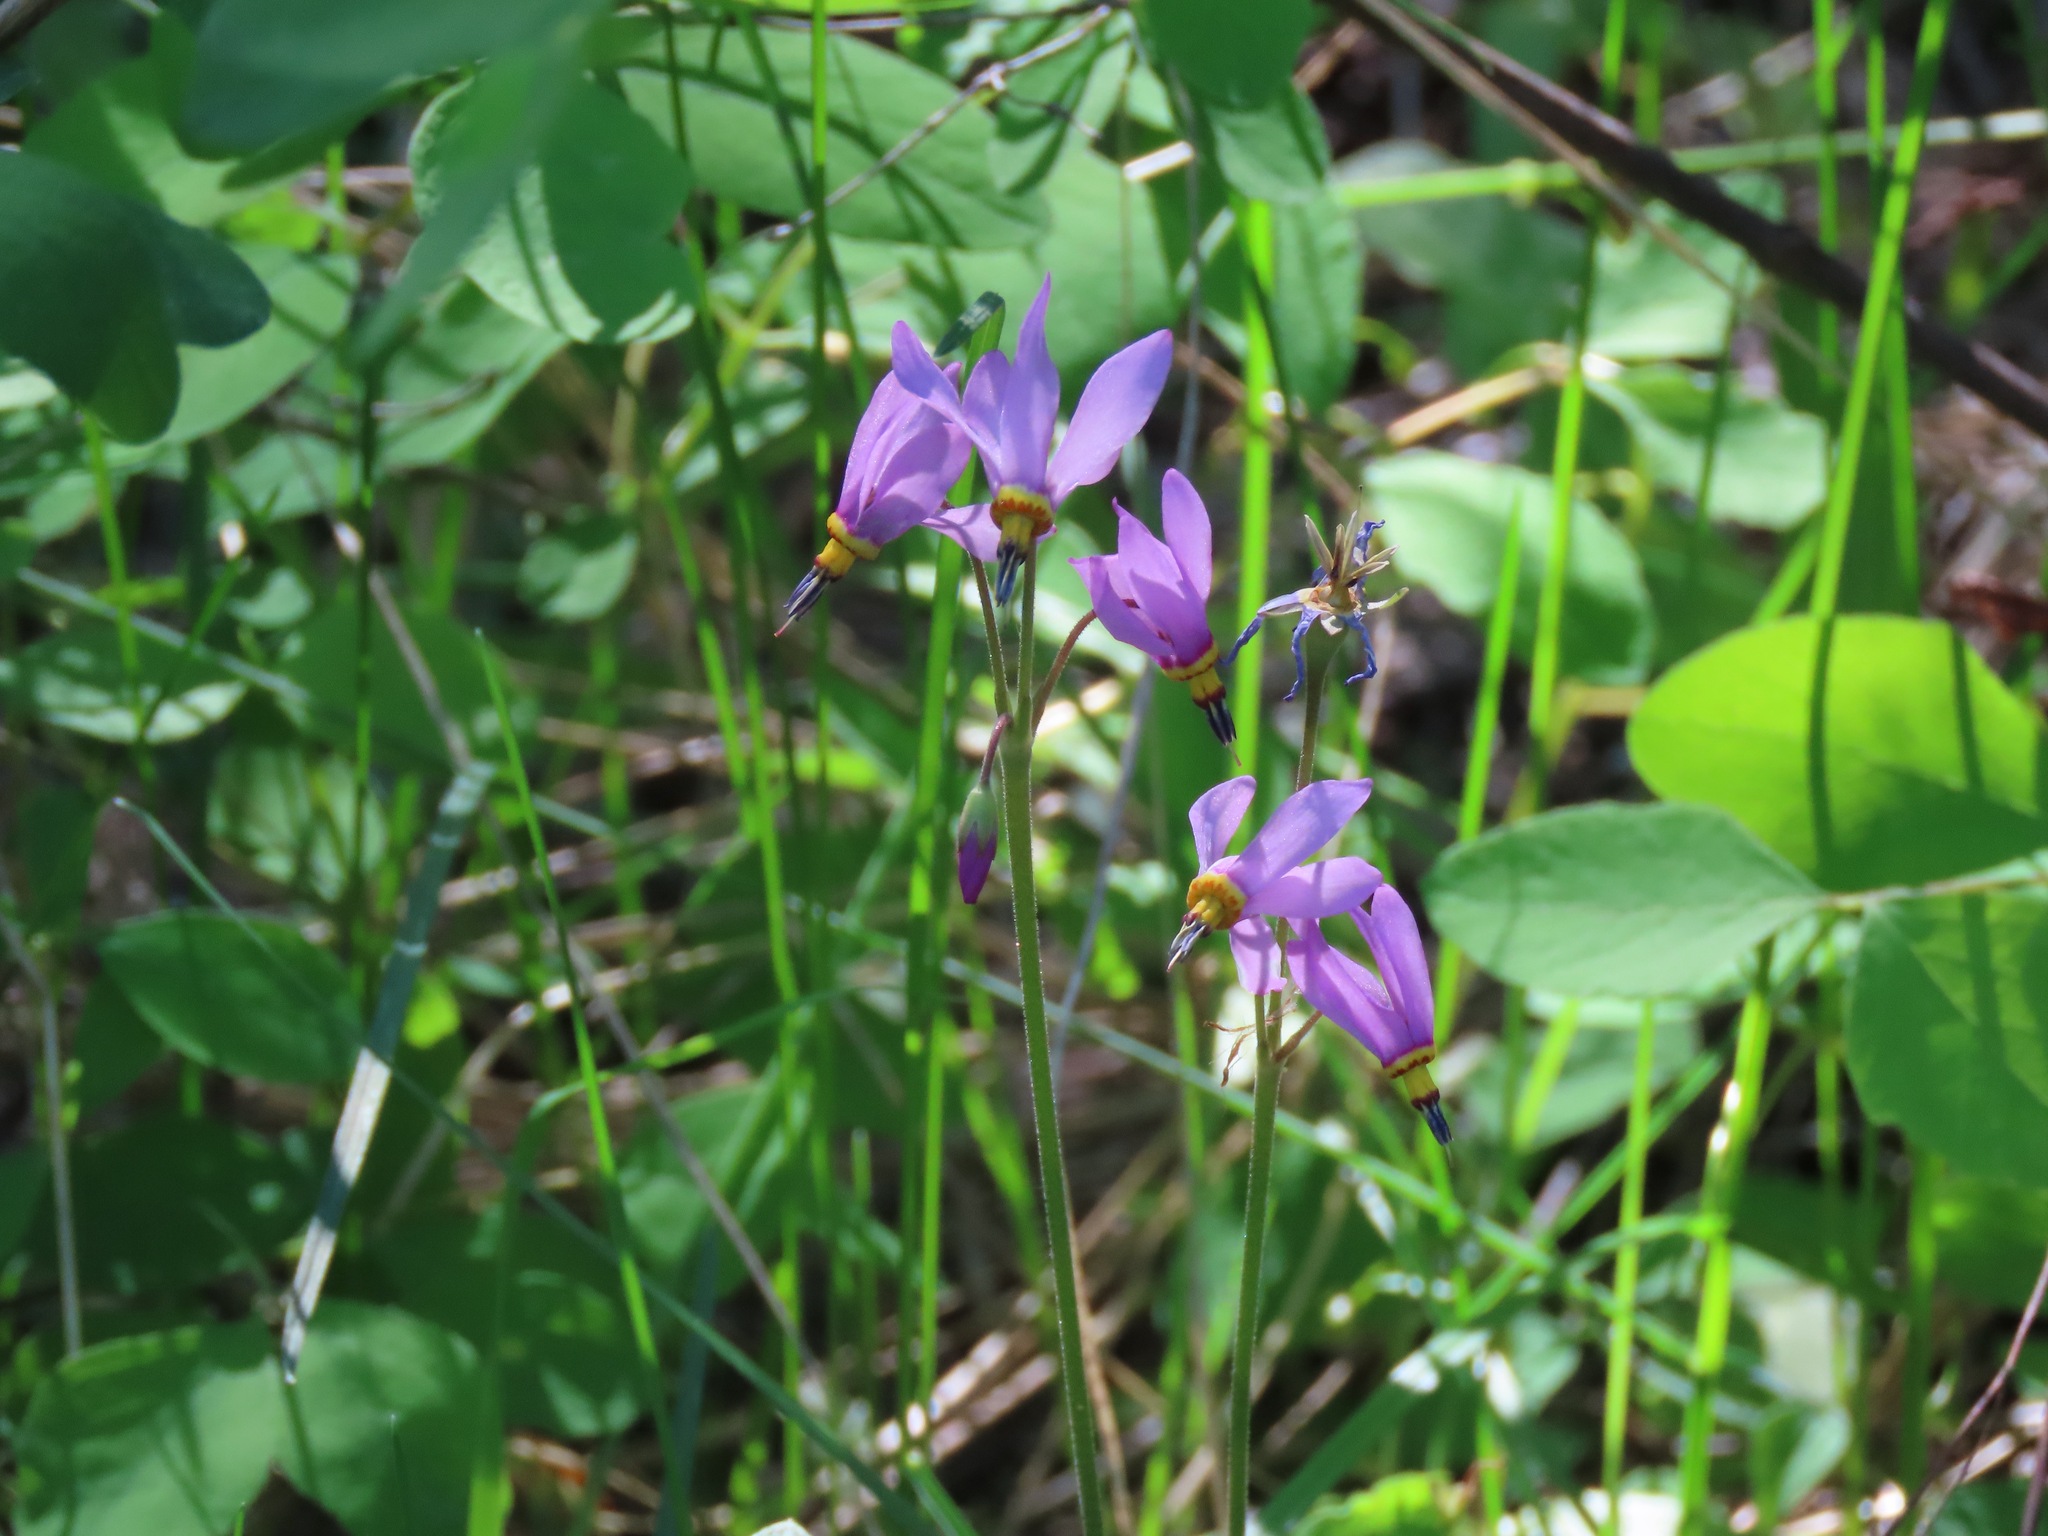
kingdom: Plantae
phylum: Tracheophyta
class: Magnoliopsida
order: Ericales
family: Primulaceae
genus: Dodecatheon
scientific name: Dodecatheon pulchellum
